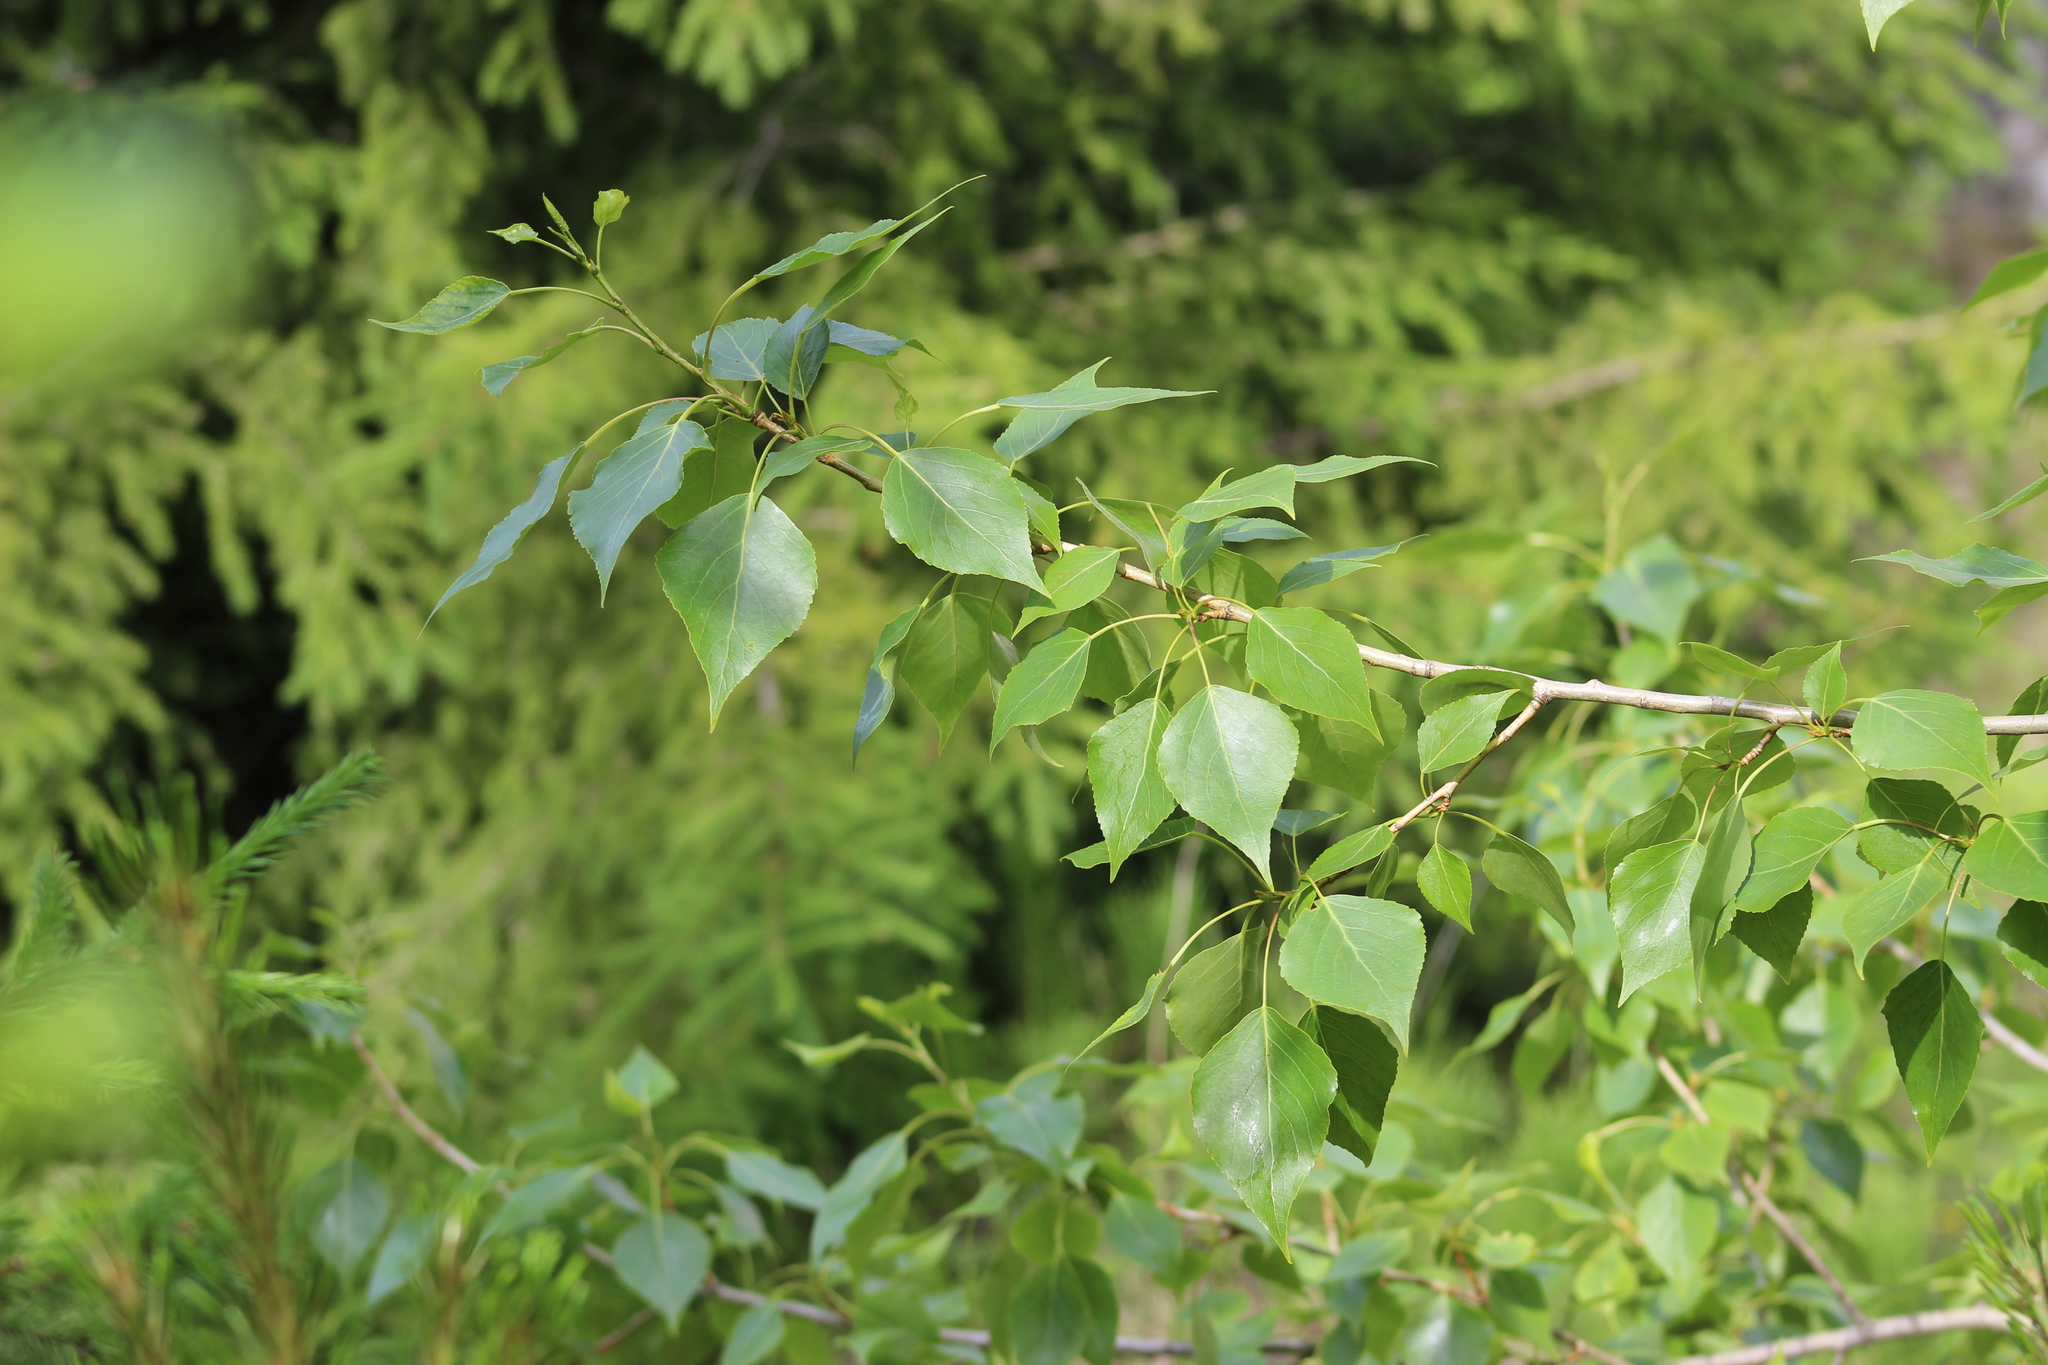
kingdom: Plantae
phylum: Tracheophyta
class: Magnoliopsida
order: Malpighiales
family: Salicaceae
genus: Populus
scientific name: Populus nigra
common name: Black poplar
